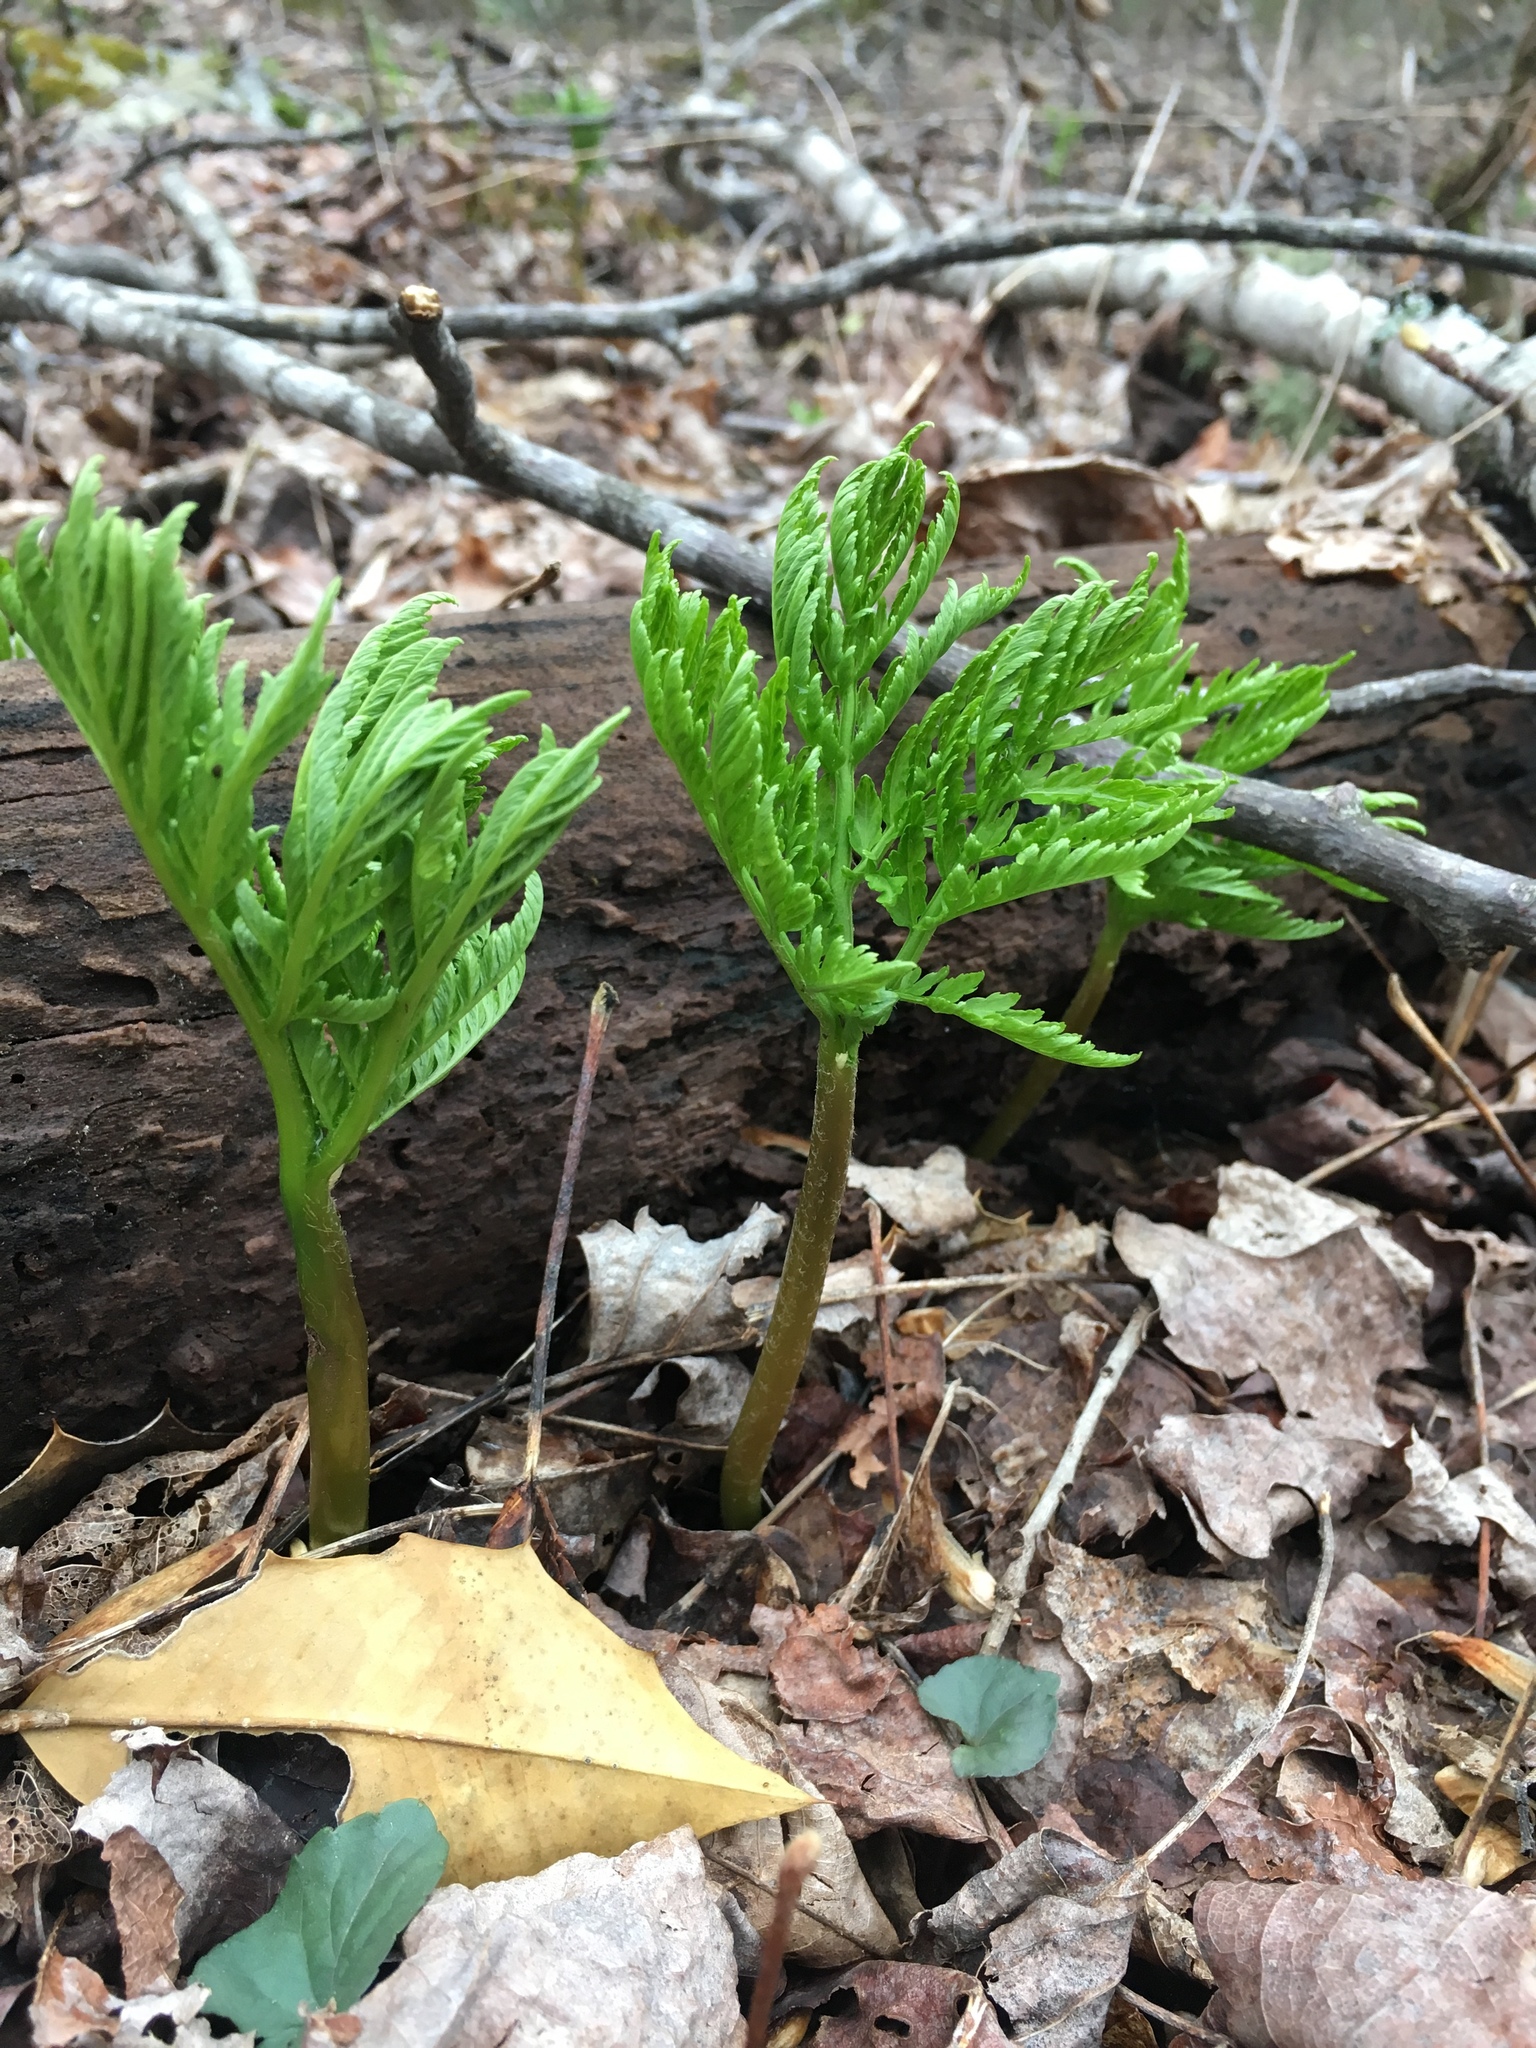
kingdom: Plantae
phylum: Tracheophyta
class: Polypodiopsida
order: Ophioglossales
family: Ophioglossaceae
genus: Botrypus
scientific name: Botrypus virginianus
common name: Common grapefern
